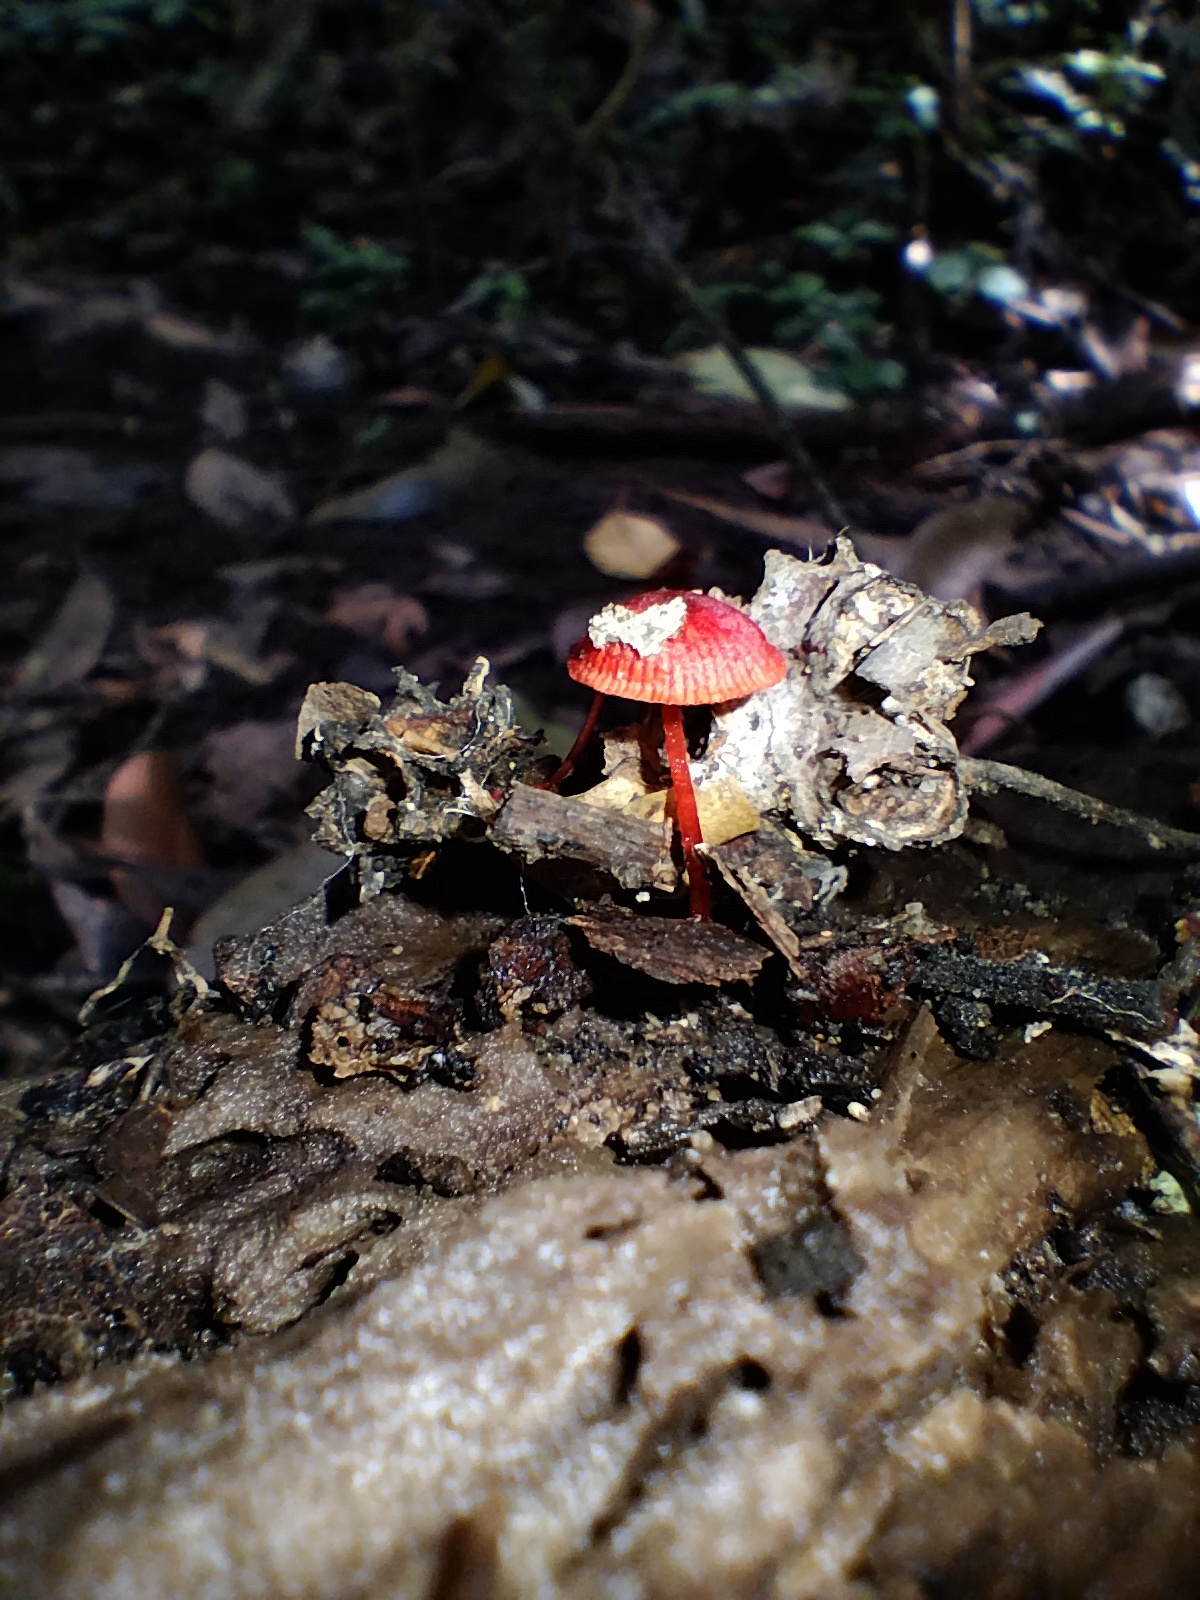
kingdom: Fungi
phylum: Basidiomycota
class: Agaricomycetes
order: Agaricales
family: Mycenaceae
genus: Cruentomycena
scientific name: Cruentomycena viscidocruenta
